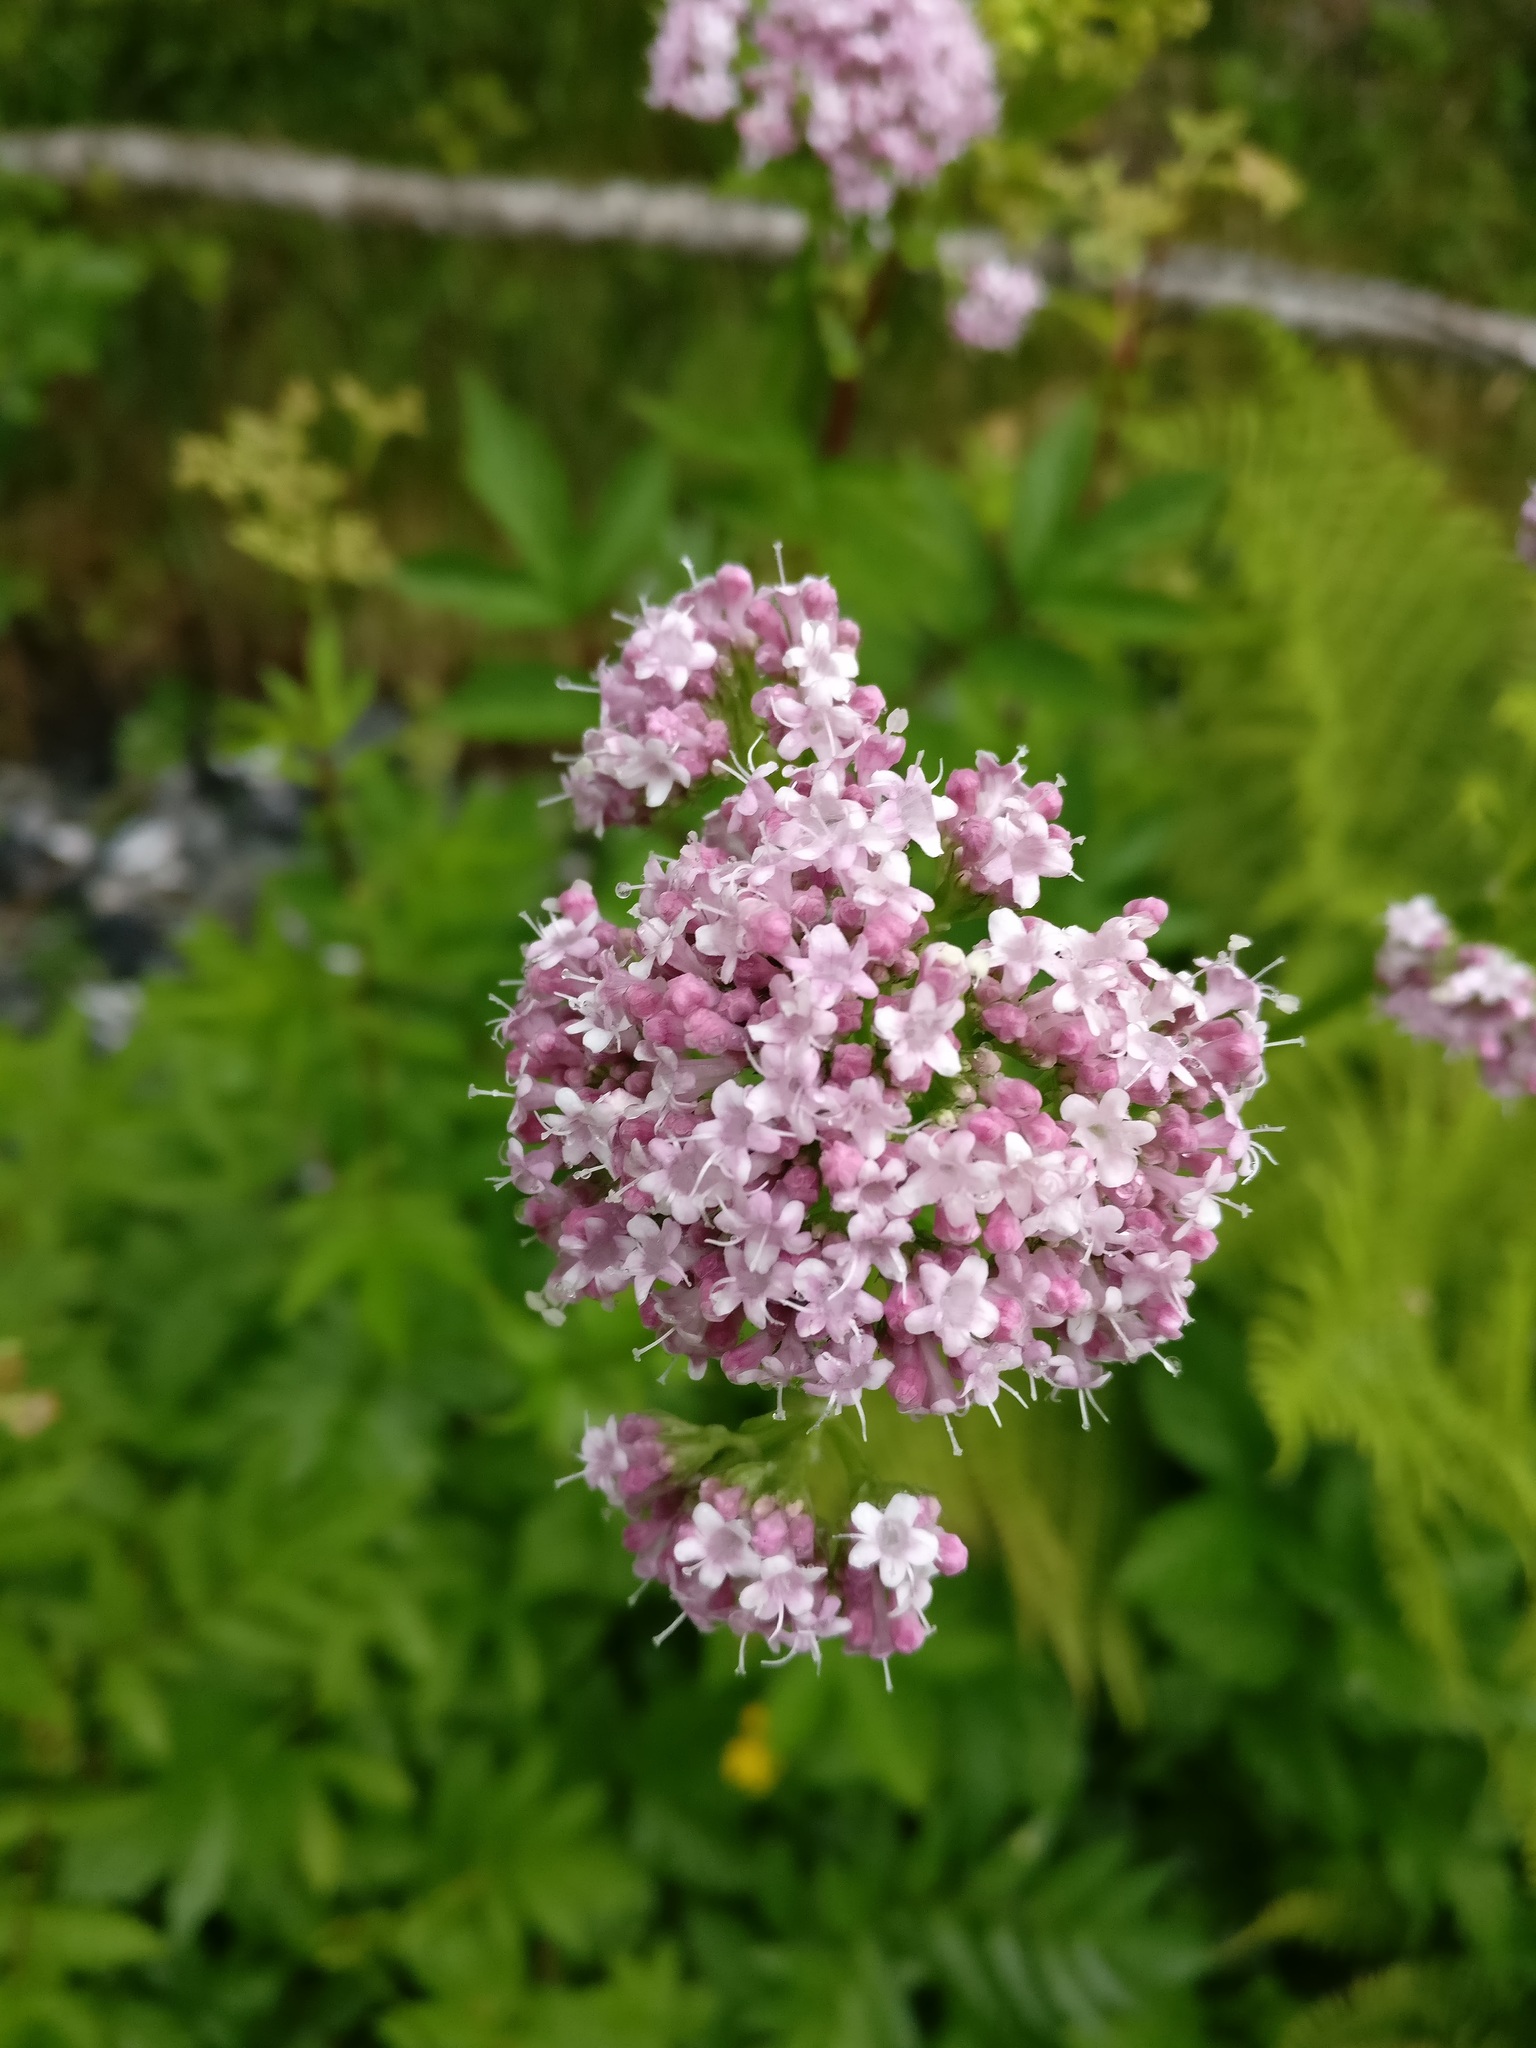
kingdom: Plantae
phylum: Tracheophyta
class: Magnoliopsida
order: Dipsacales
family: Caprifoliaceae
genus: Valeriana
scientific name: Valeriana excelsa
